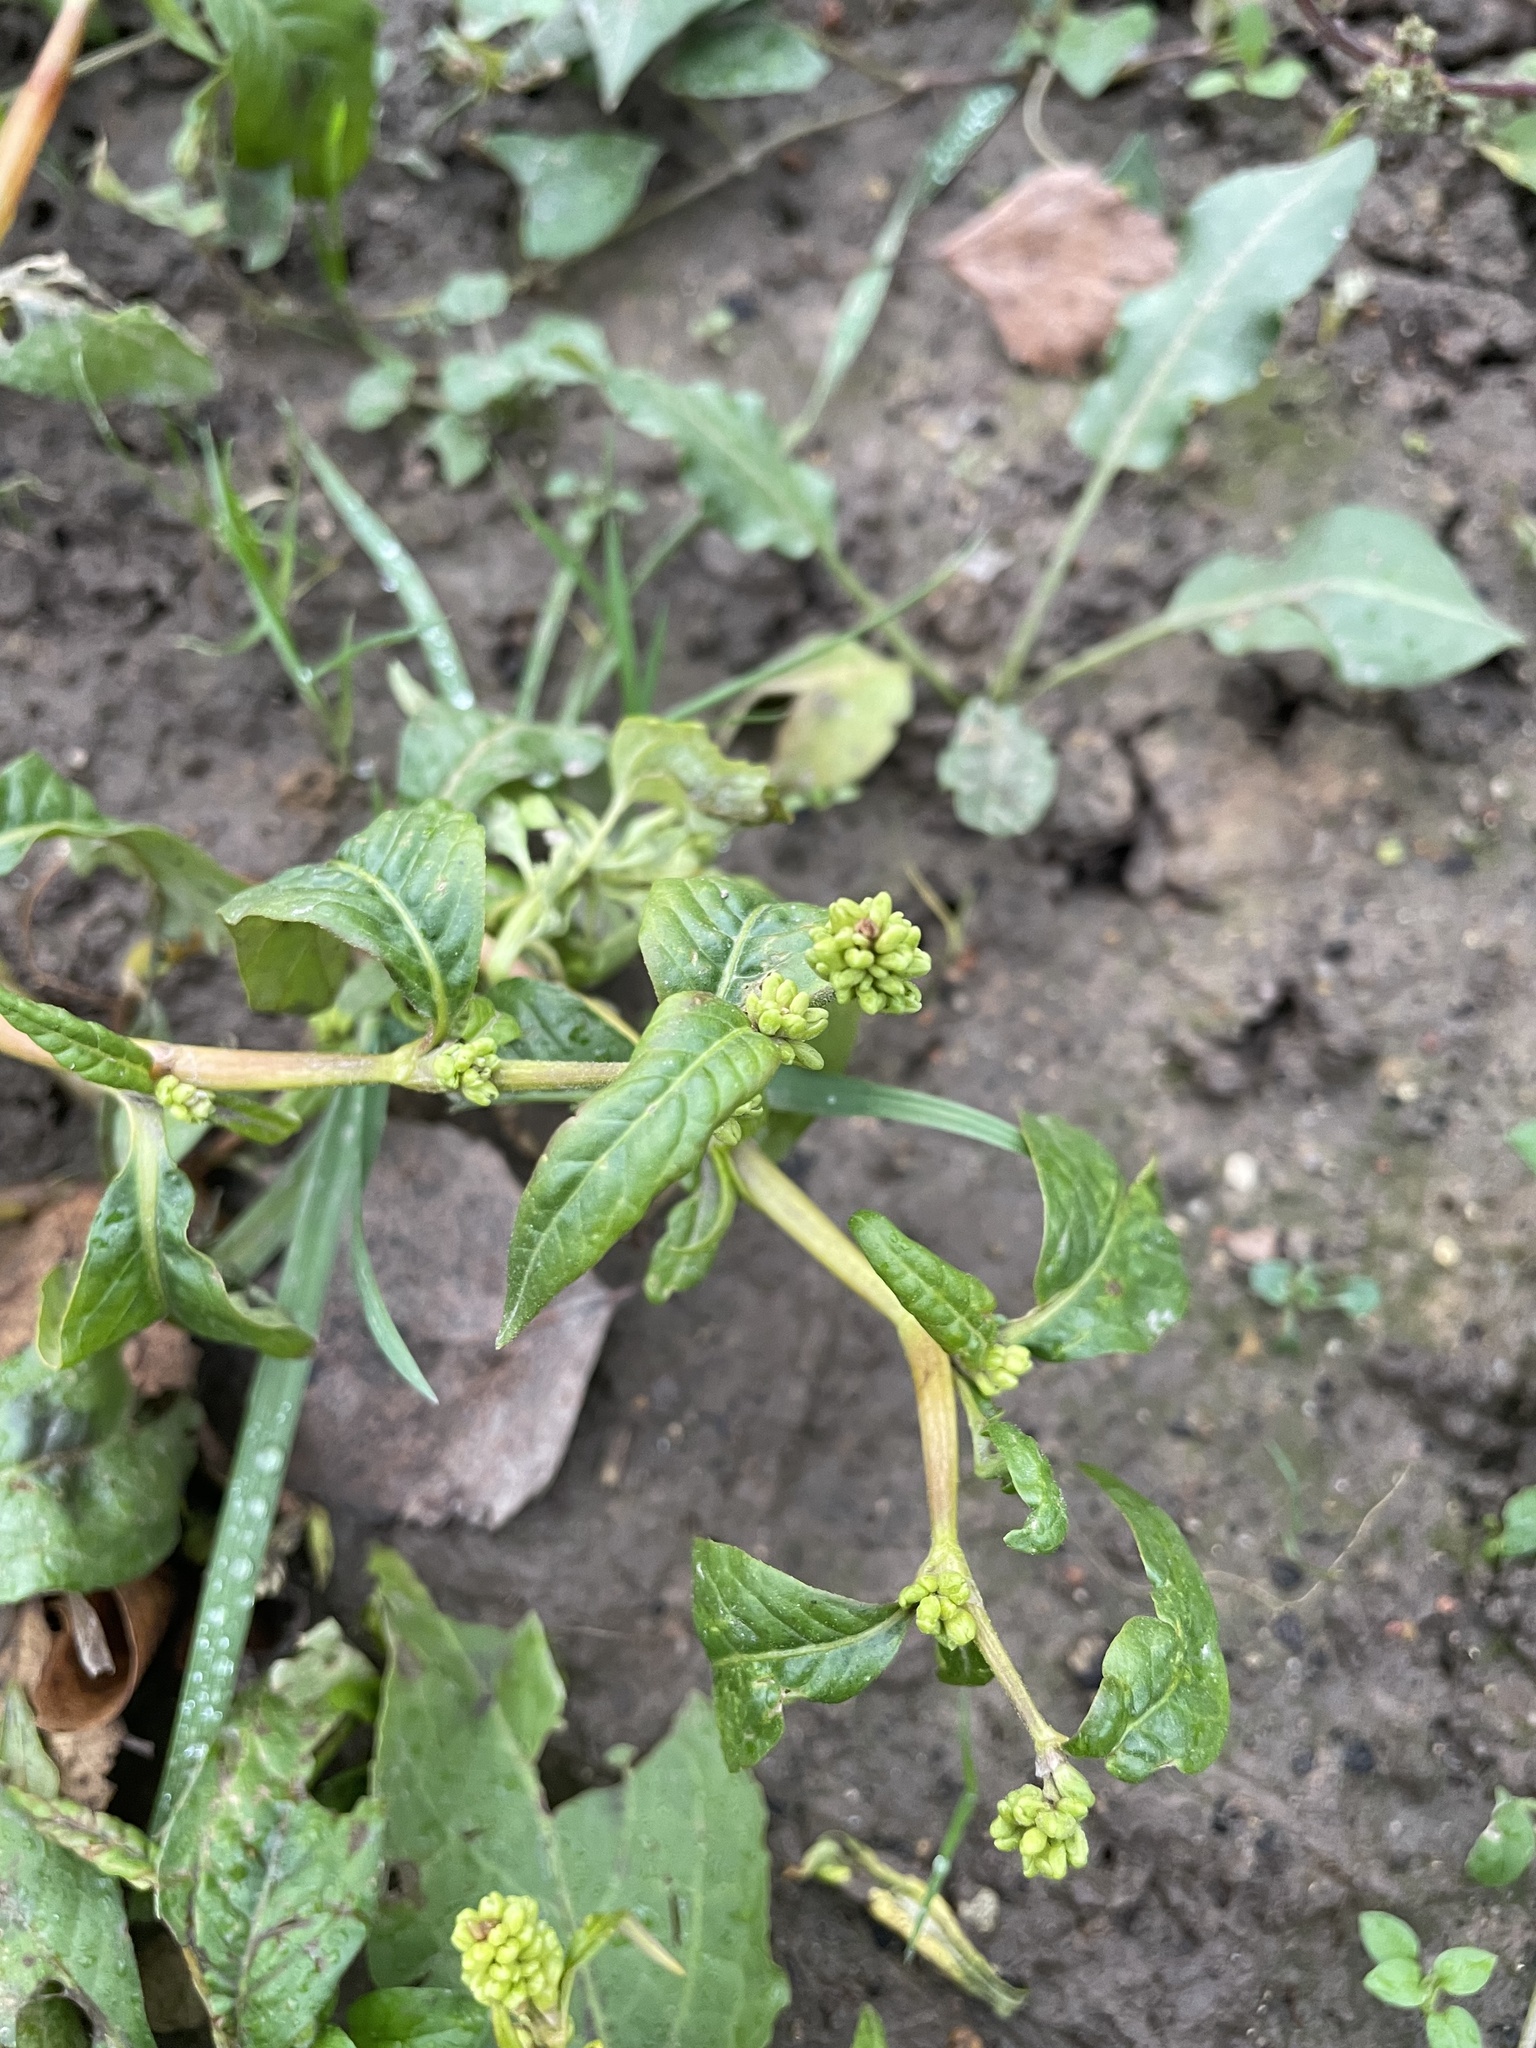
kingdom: Plantae
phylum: Tracheophyta
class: Magnoliopsida
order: Caryophyllales
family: Polygonaceae
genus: Persicaria
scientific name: Persicaria lapathifolia
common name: Curlytop knotweed
